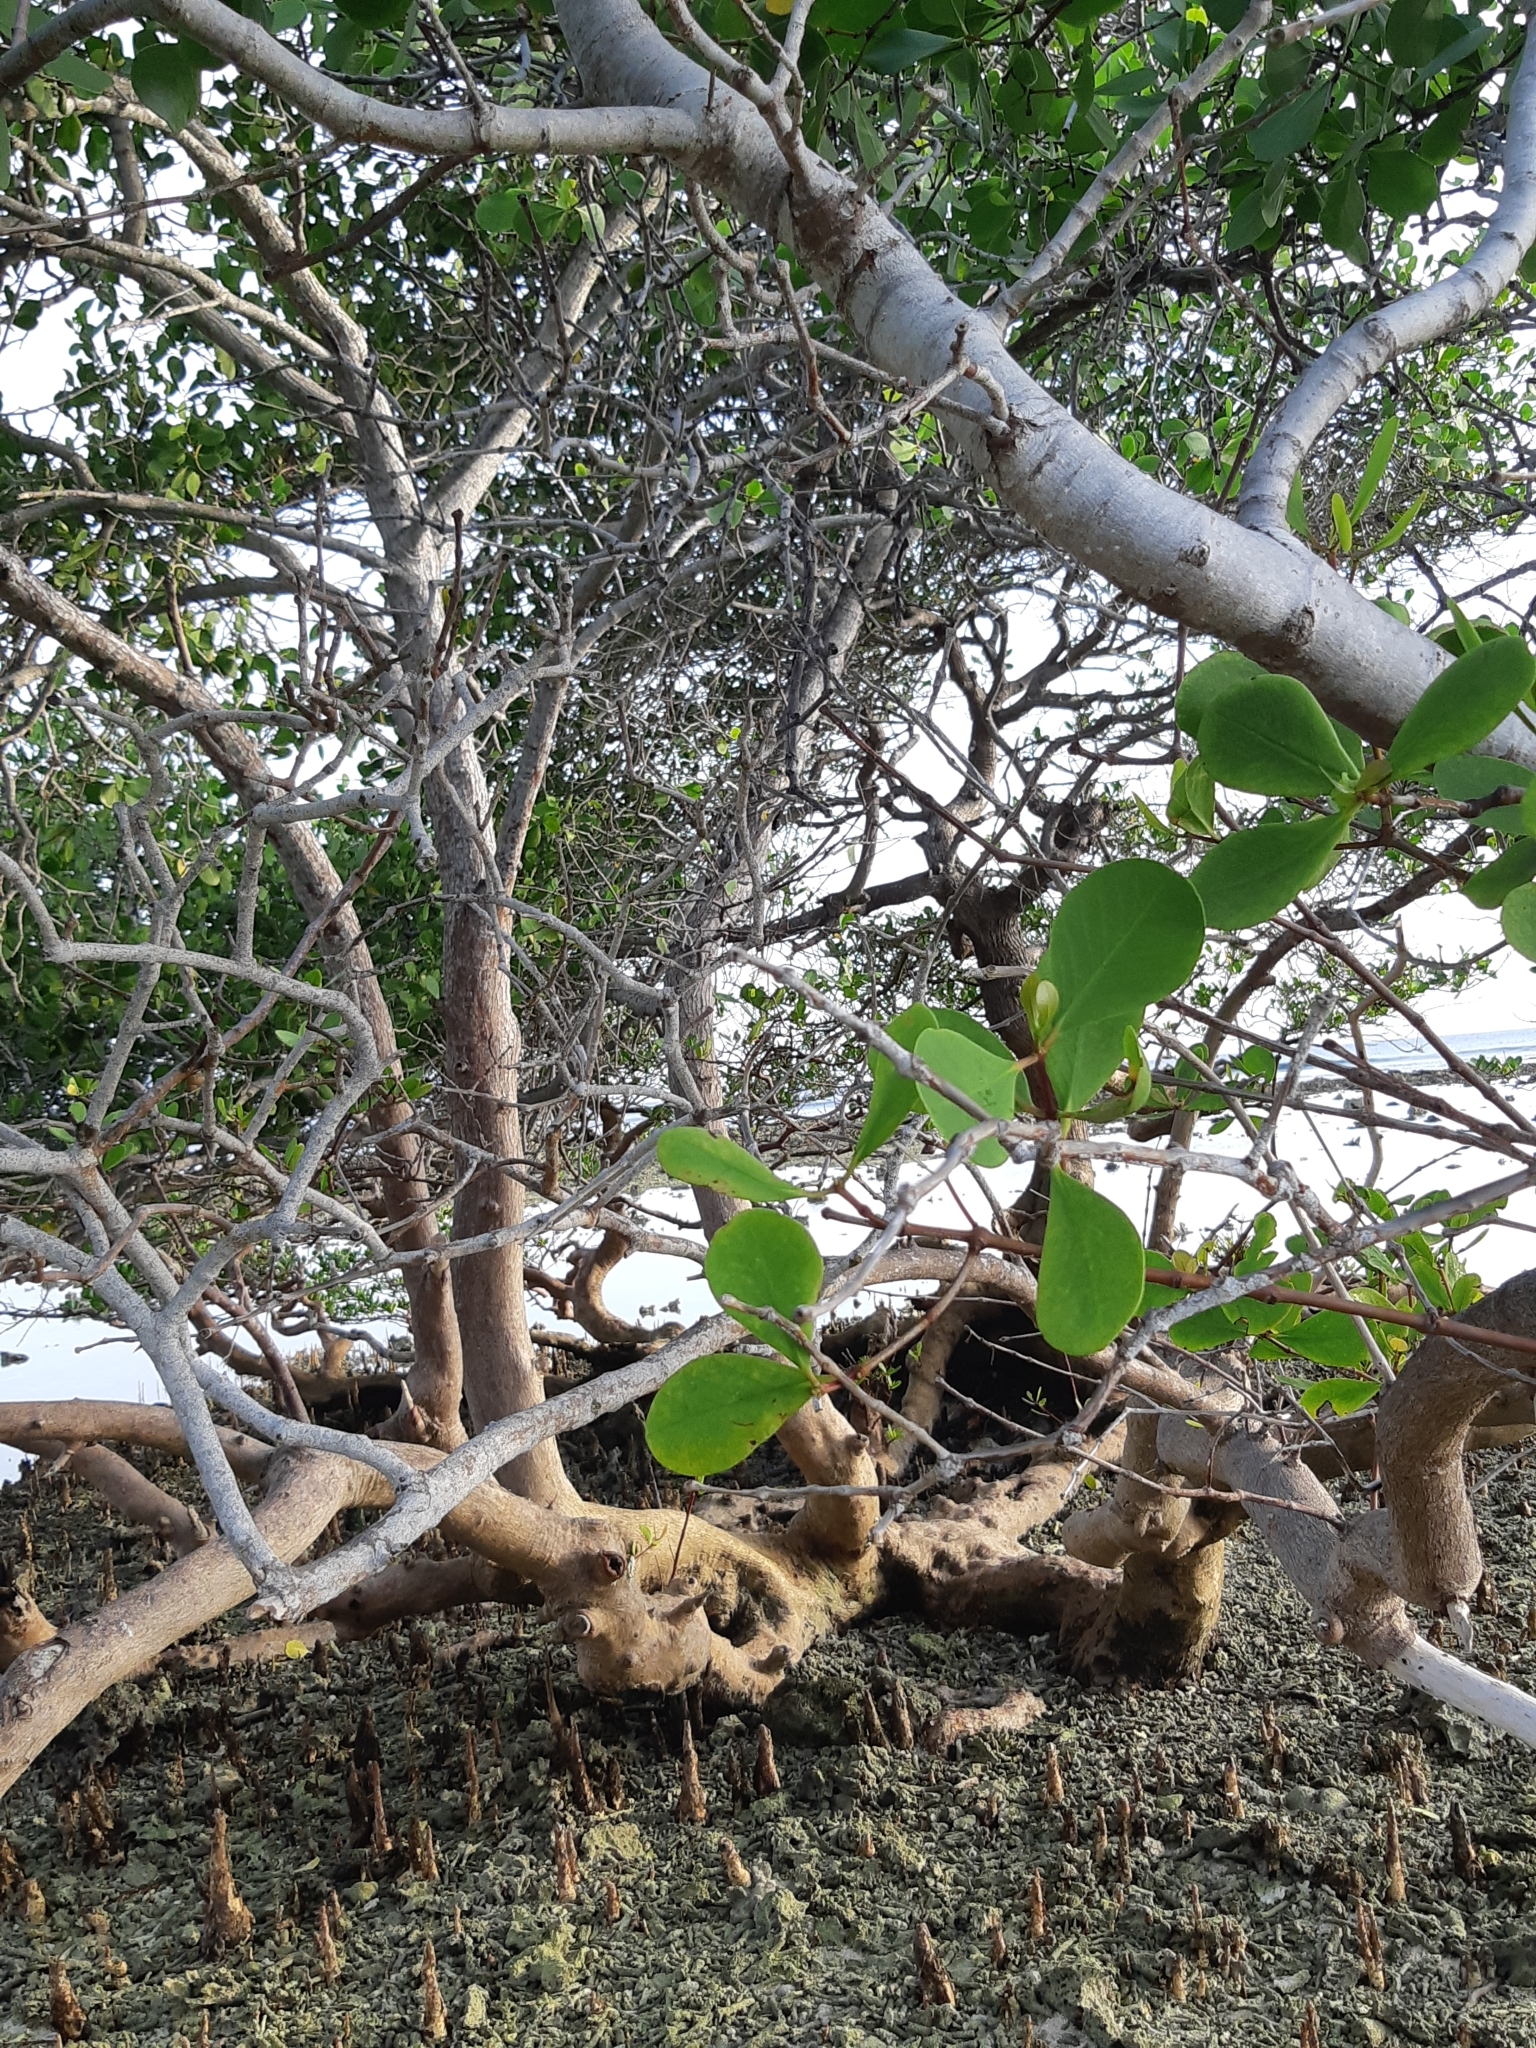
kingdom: Plantae
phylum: Tracheophyta
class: Magnoliopsida
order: Myrtales
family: Lythraceae
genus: Sonneratia
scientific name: Sonneratia alba
